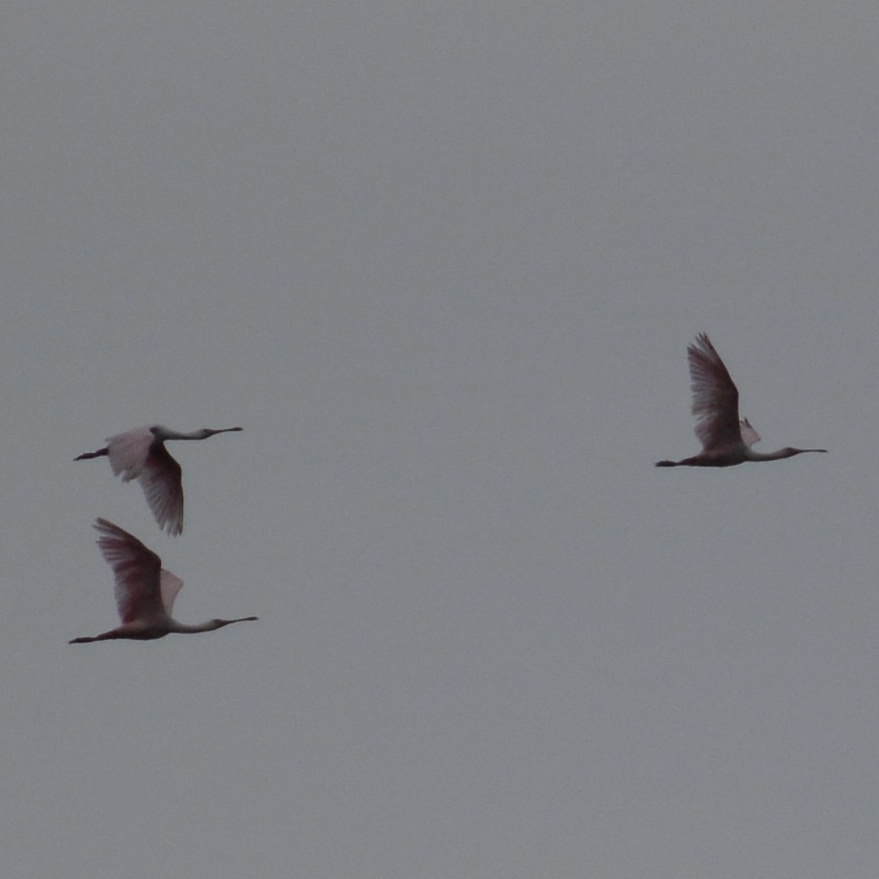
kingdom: Animalia
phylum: Chordata
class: Aves
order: Pelecaniformes
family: Threskiornithidae
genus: Platalea
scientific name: Platalea ajaja
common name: Roseate spoonbill
